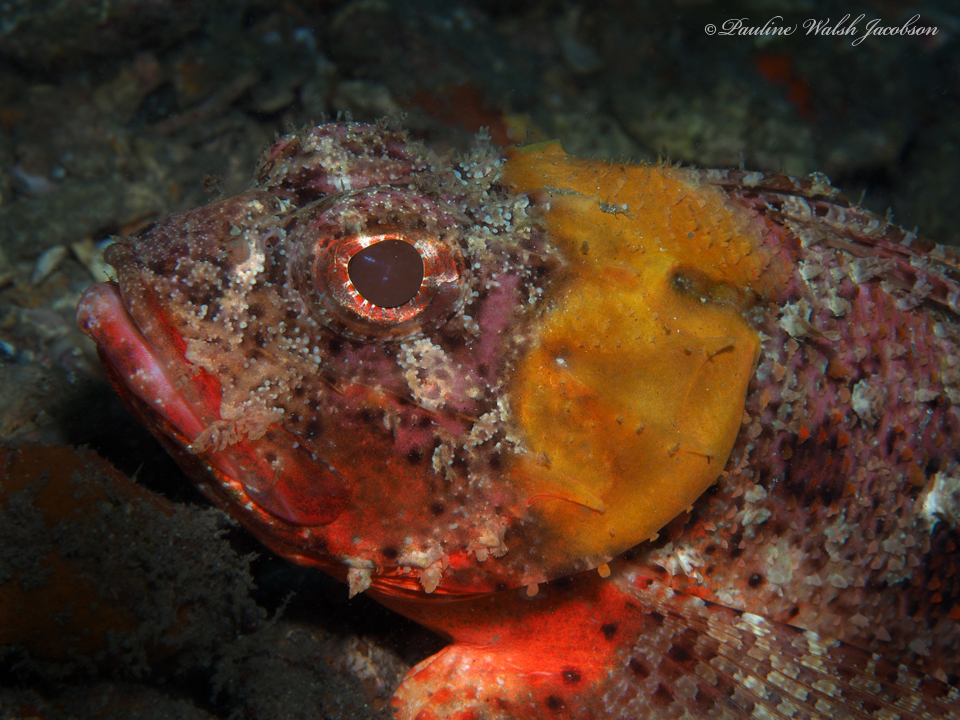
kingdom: Animalia
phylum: Chordata
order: Scorpaeniformes
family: Scorpaenidae
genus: Scorpaena
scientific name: Scorpaena brasiliensis
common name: Barbfish
